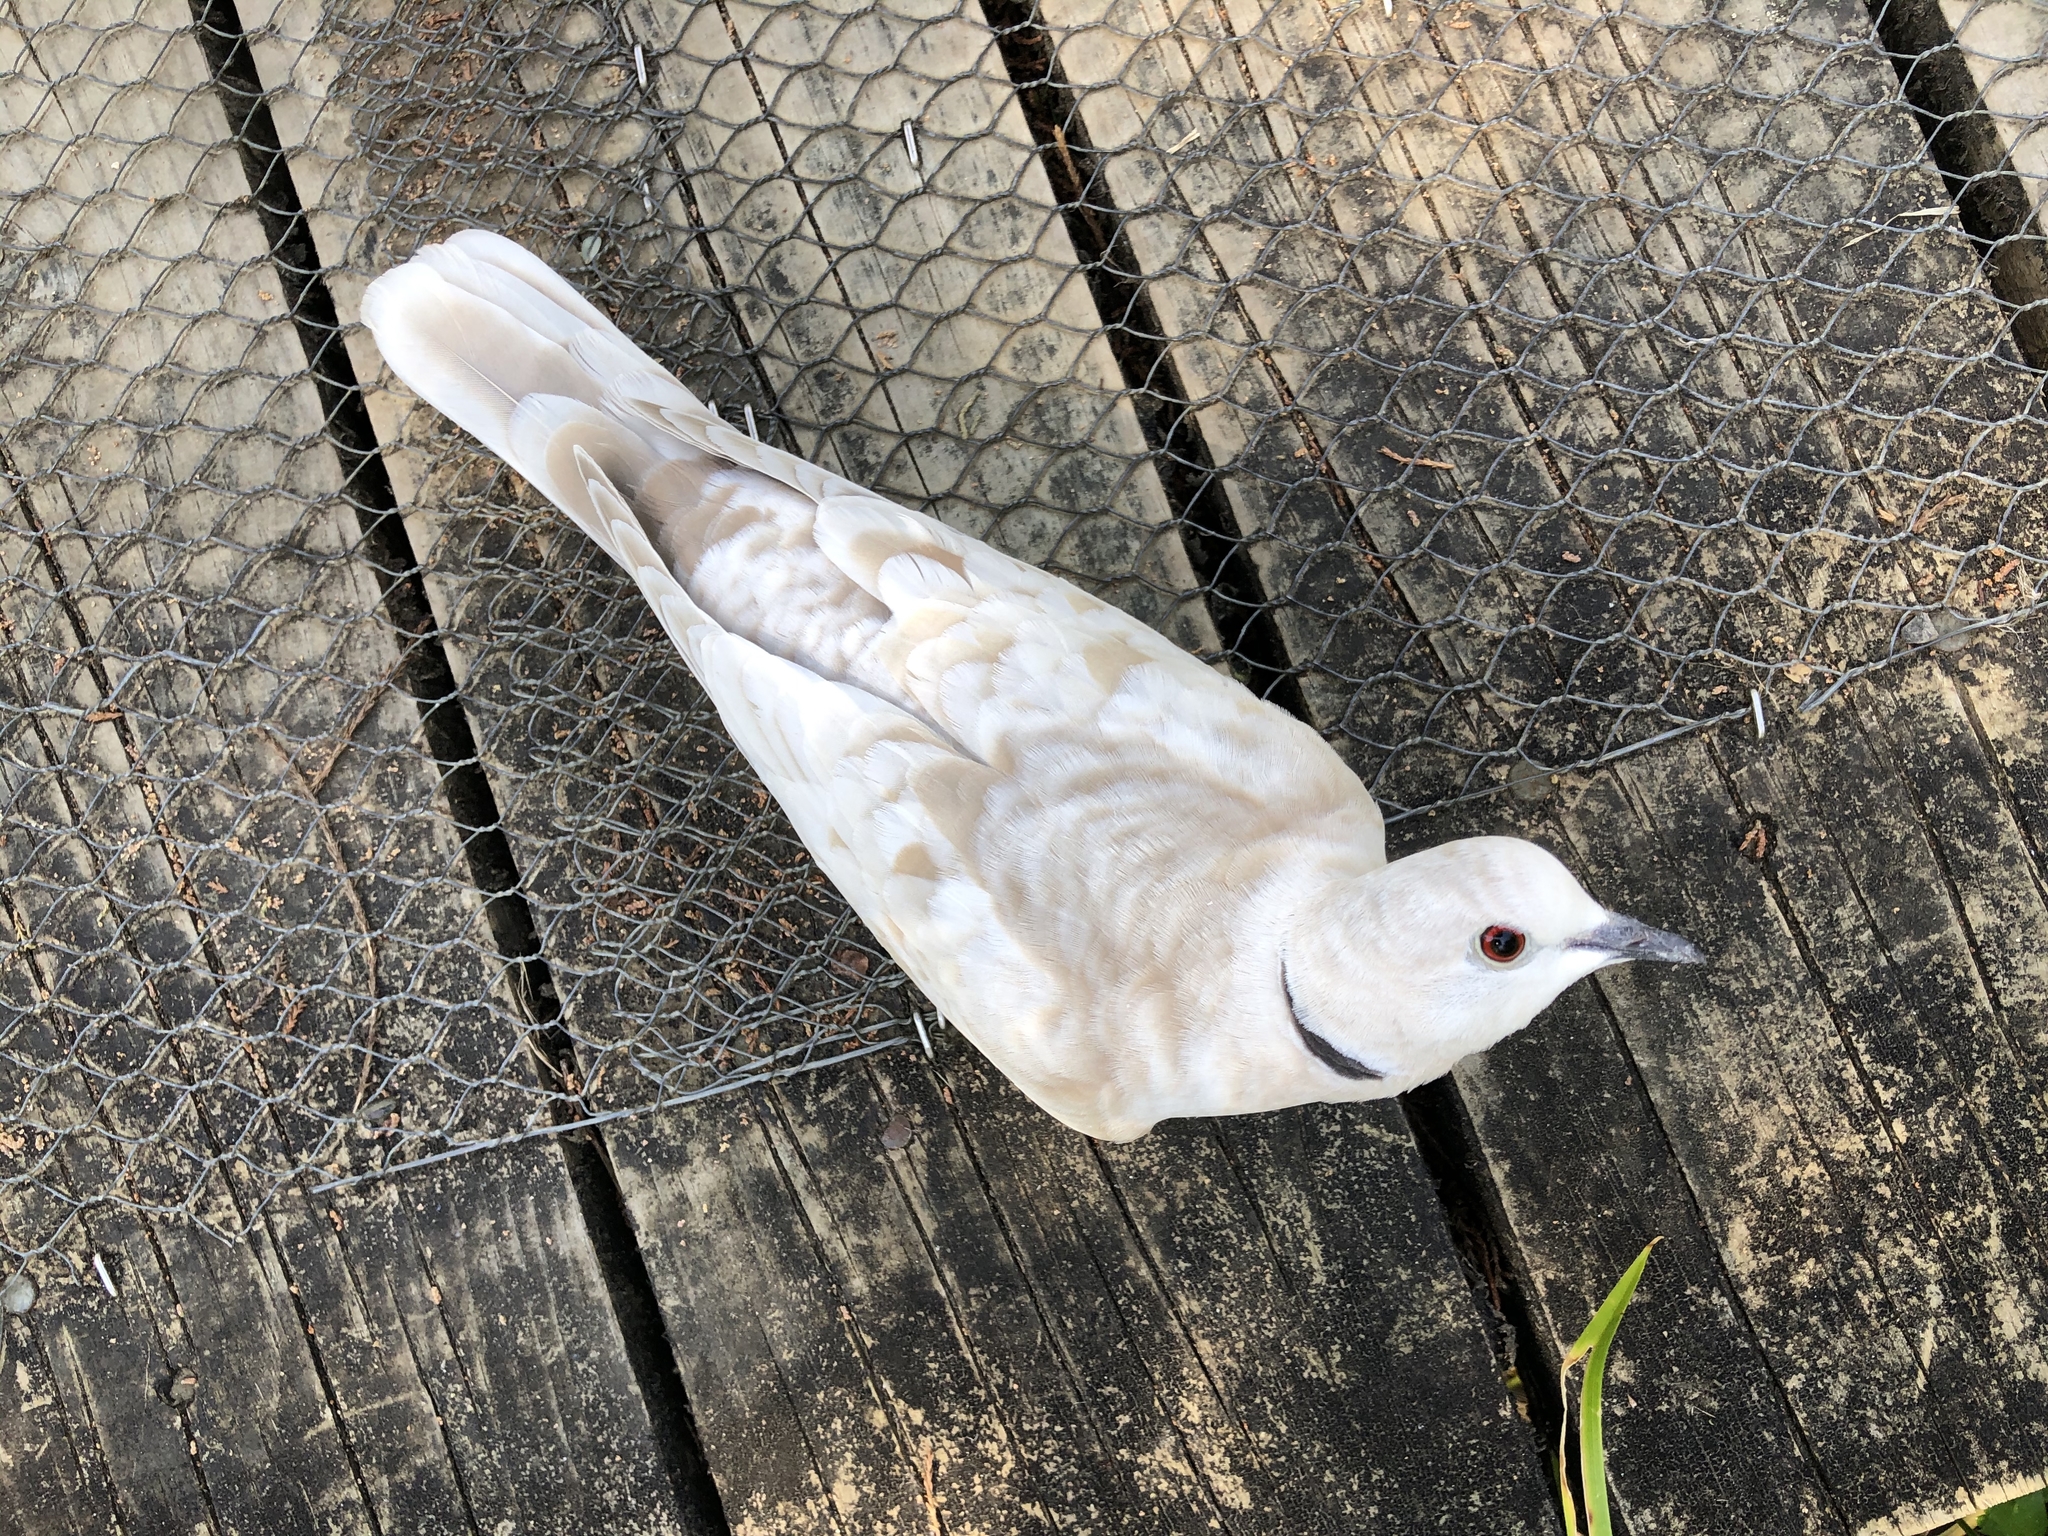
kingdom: Animalia
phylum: Chordata
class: Aves
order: Columbiformes
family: Columbidae
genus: Streptopelia
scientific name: Streptopelia roseogrisea
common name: African collared dove
